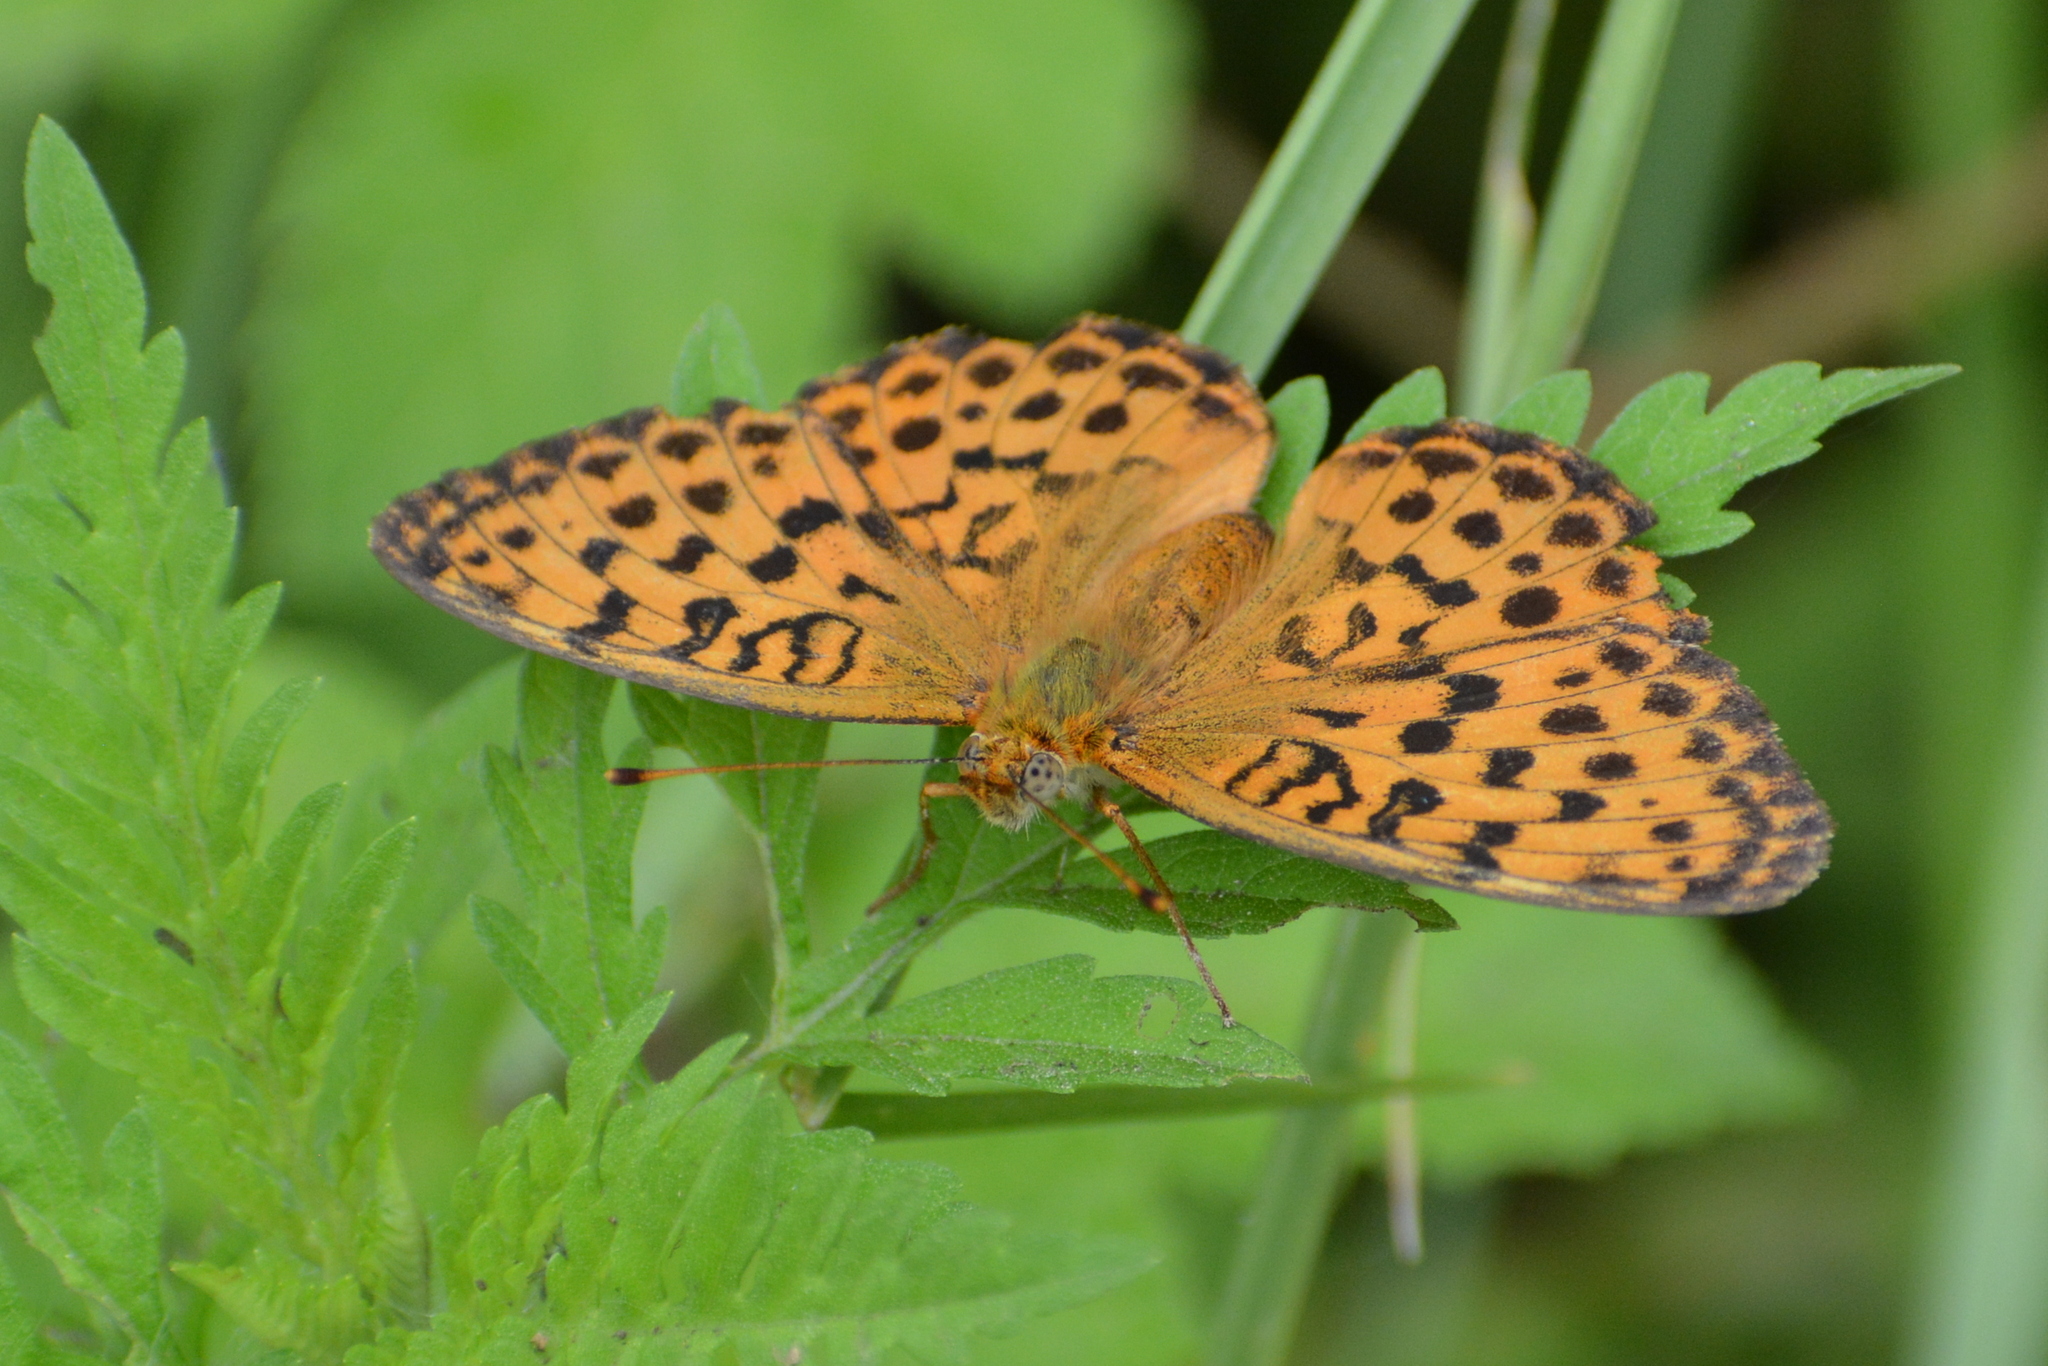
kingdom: Animalia
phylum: Arthropoda
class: Insecta
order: Lepidoptera
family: Nymphalidae
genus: Brenthis
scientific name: Brenthis daphne
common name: Marbled fritillary
